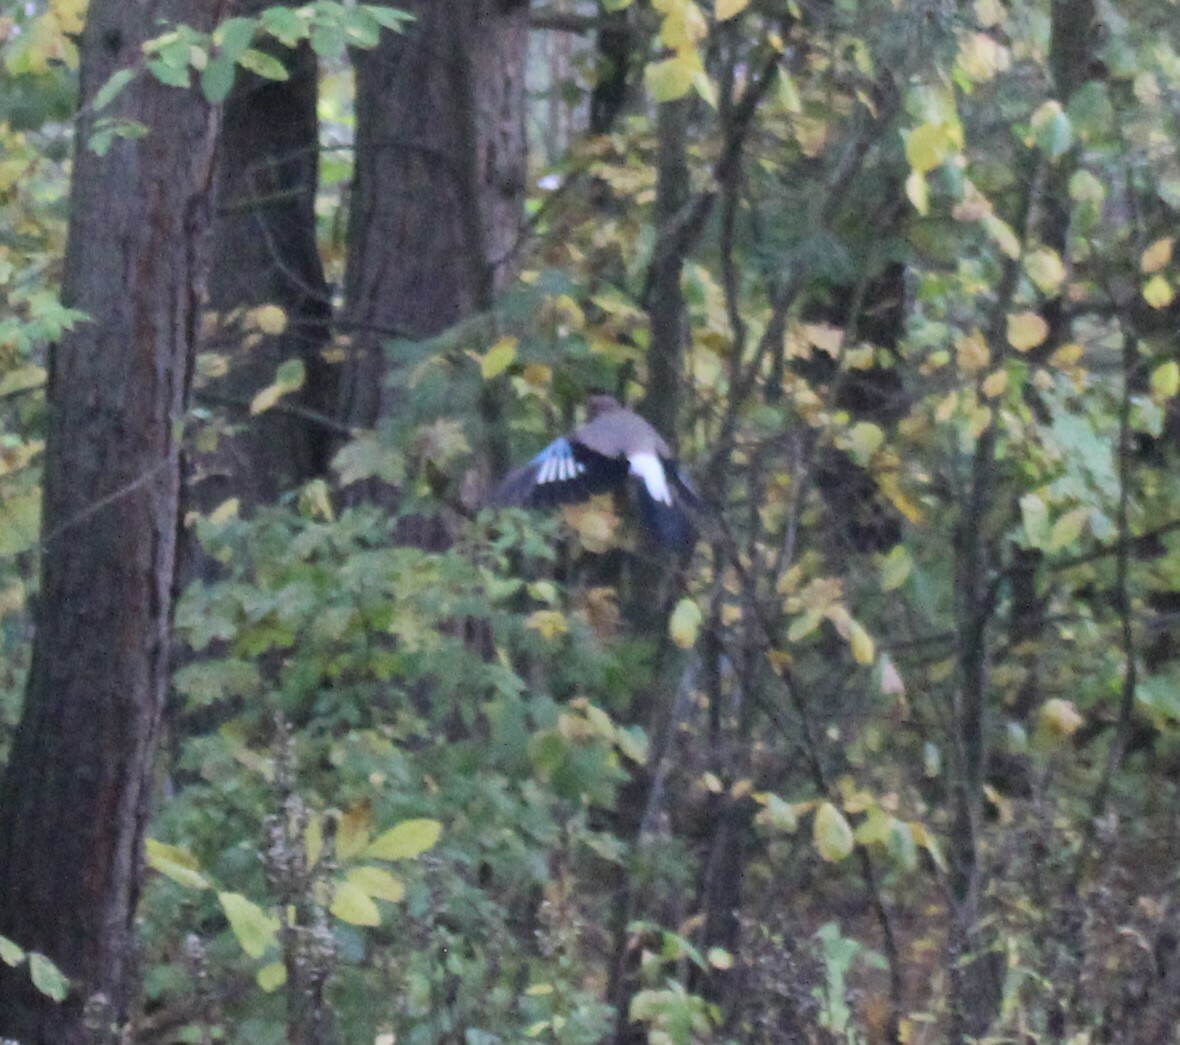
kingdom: Animalia
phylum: Chordata
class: Aves
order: Passeriformes
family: Corvidae
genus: Garrulus
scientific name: Garrulus glandarius
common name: Eurasian jay
